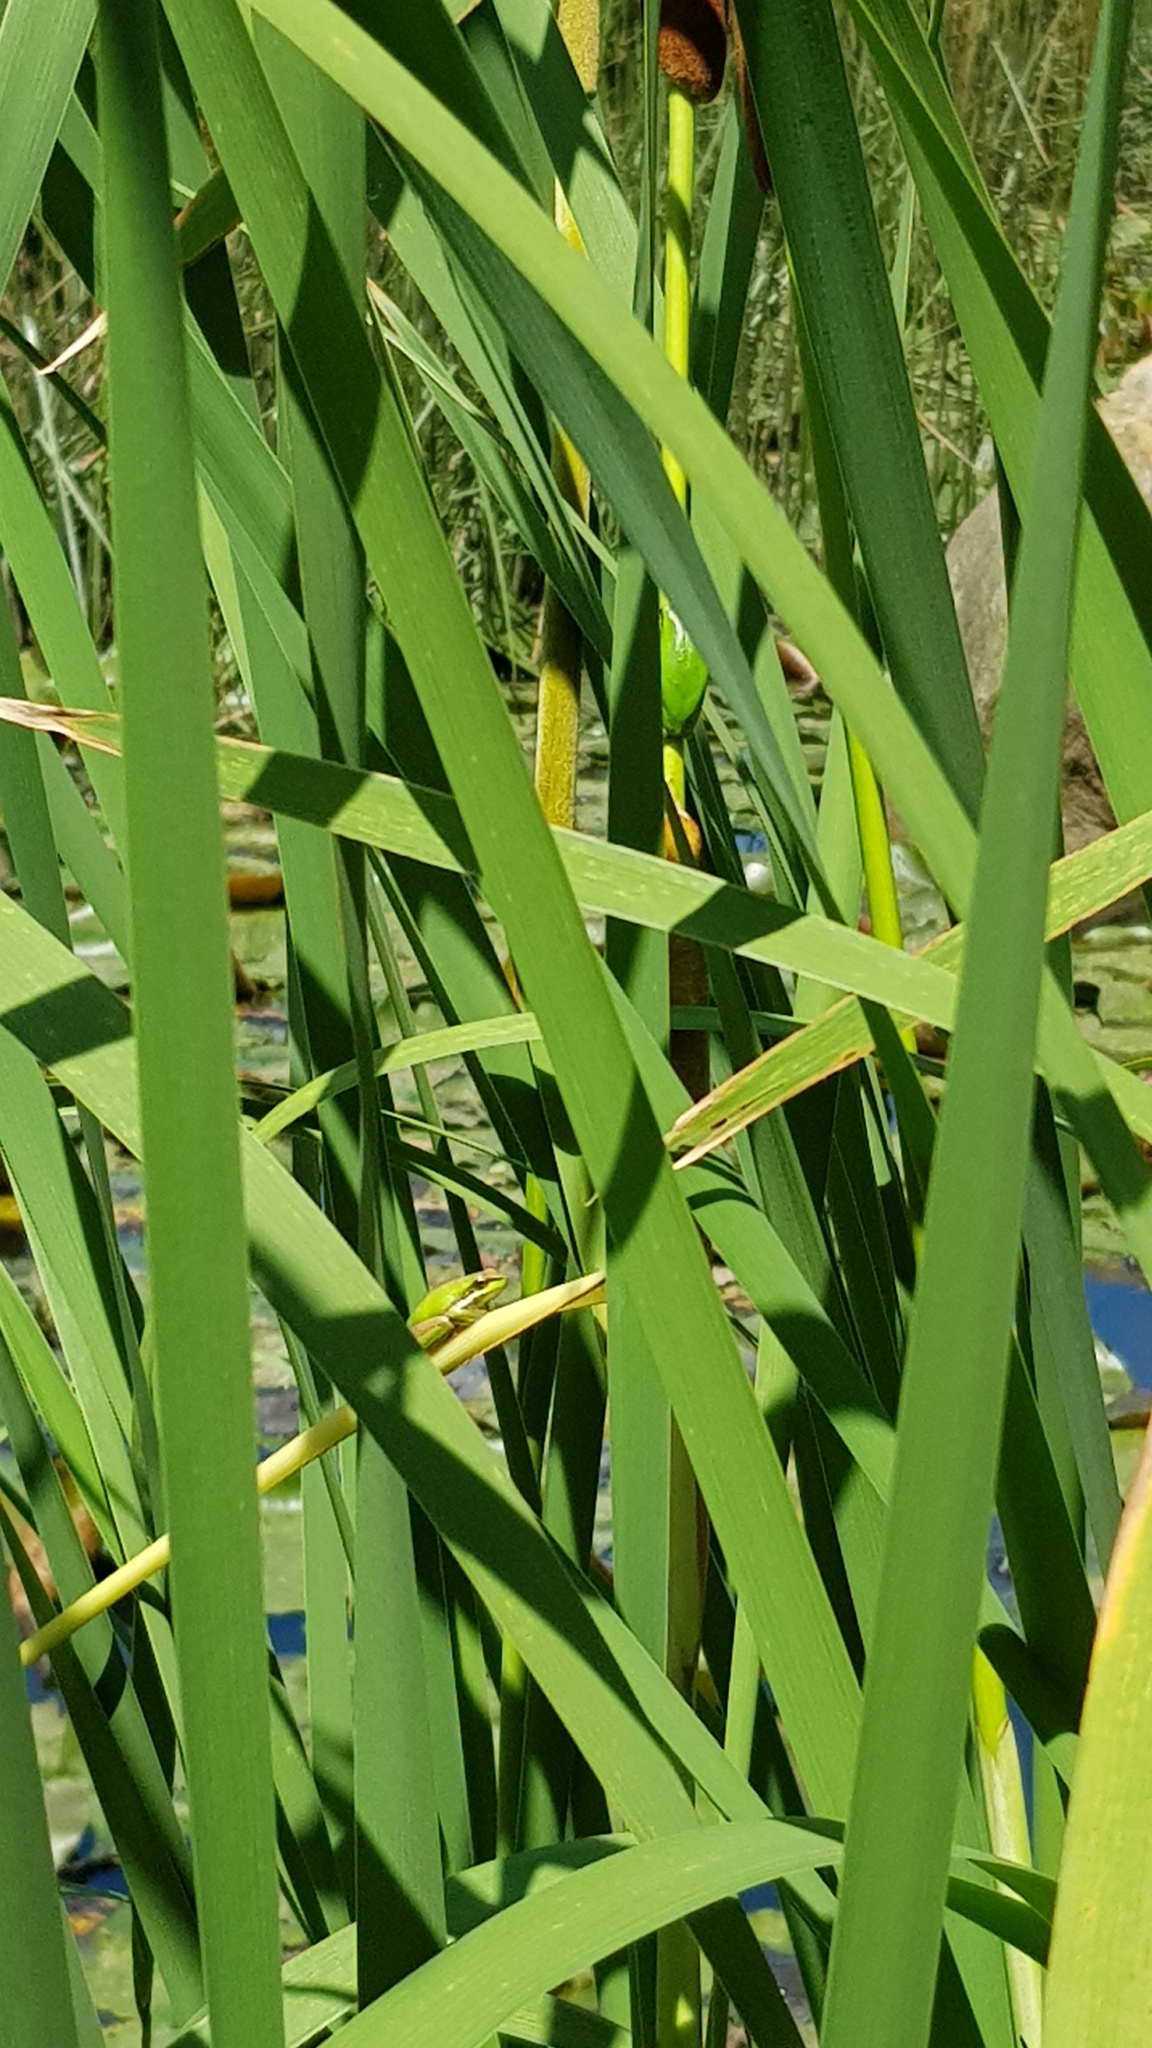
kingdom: Animalia
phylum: Chordata
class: Amphibia
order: Anura
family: Pelodryadidae
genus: Litoria
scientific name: Litoria fallax
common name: Eastern dwarf treefrog
